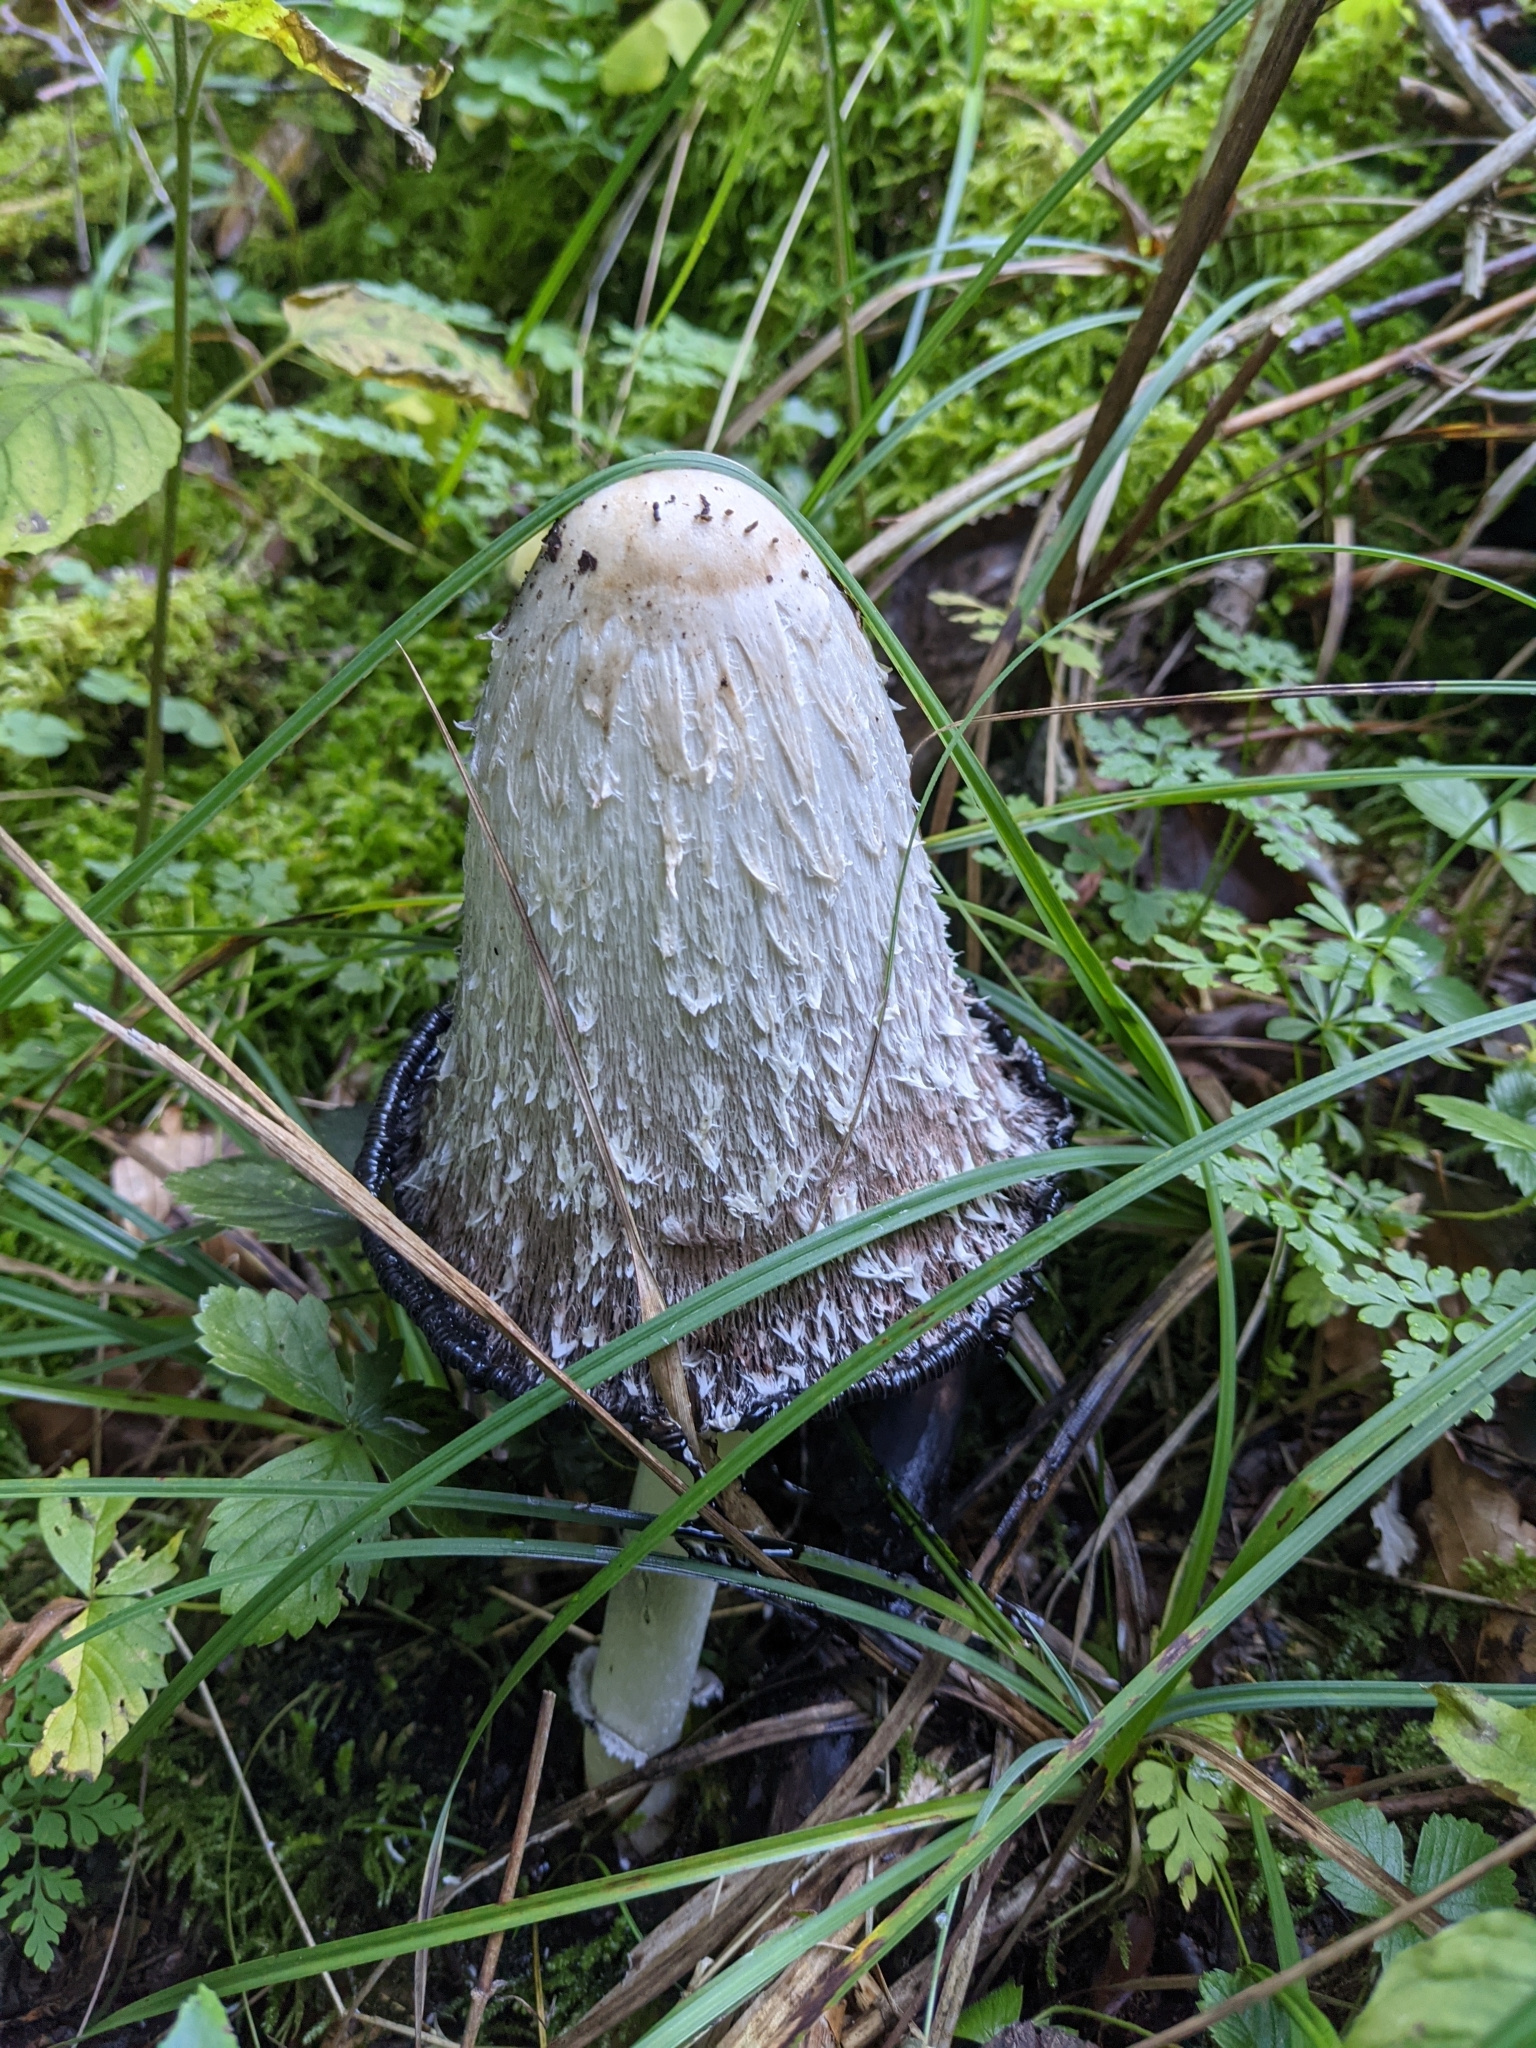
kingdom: Fungi
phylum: Basidiomycota
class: Agaricomycetes
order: Agaricales
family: Agaricaceae
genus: Coprinus
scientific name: Coprinus comatus
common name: Lawyer's wig
